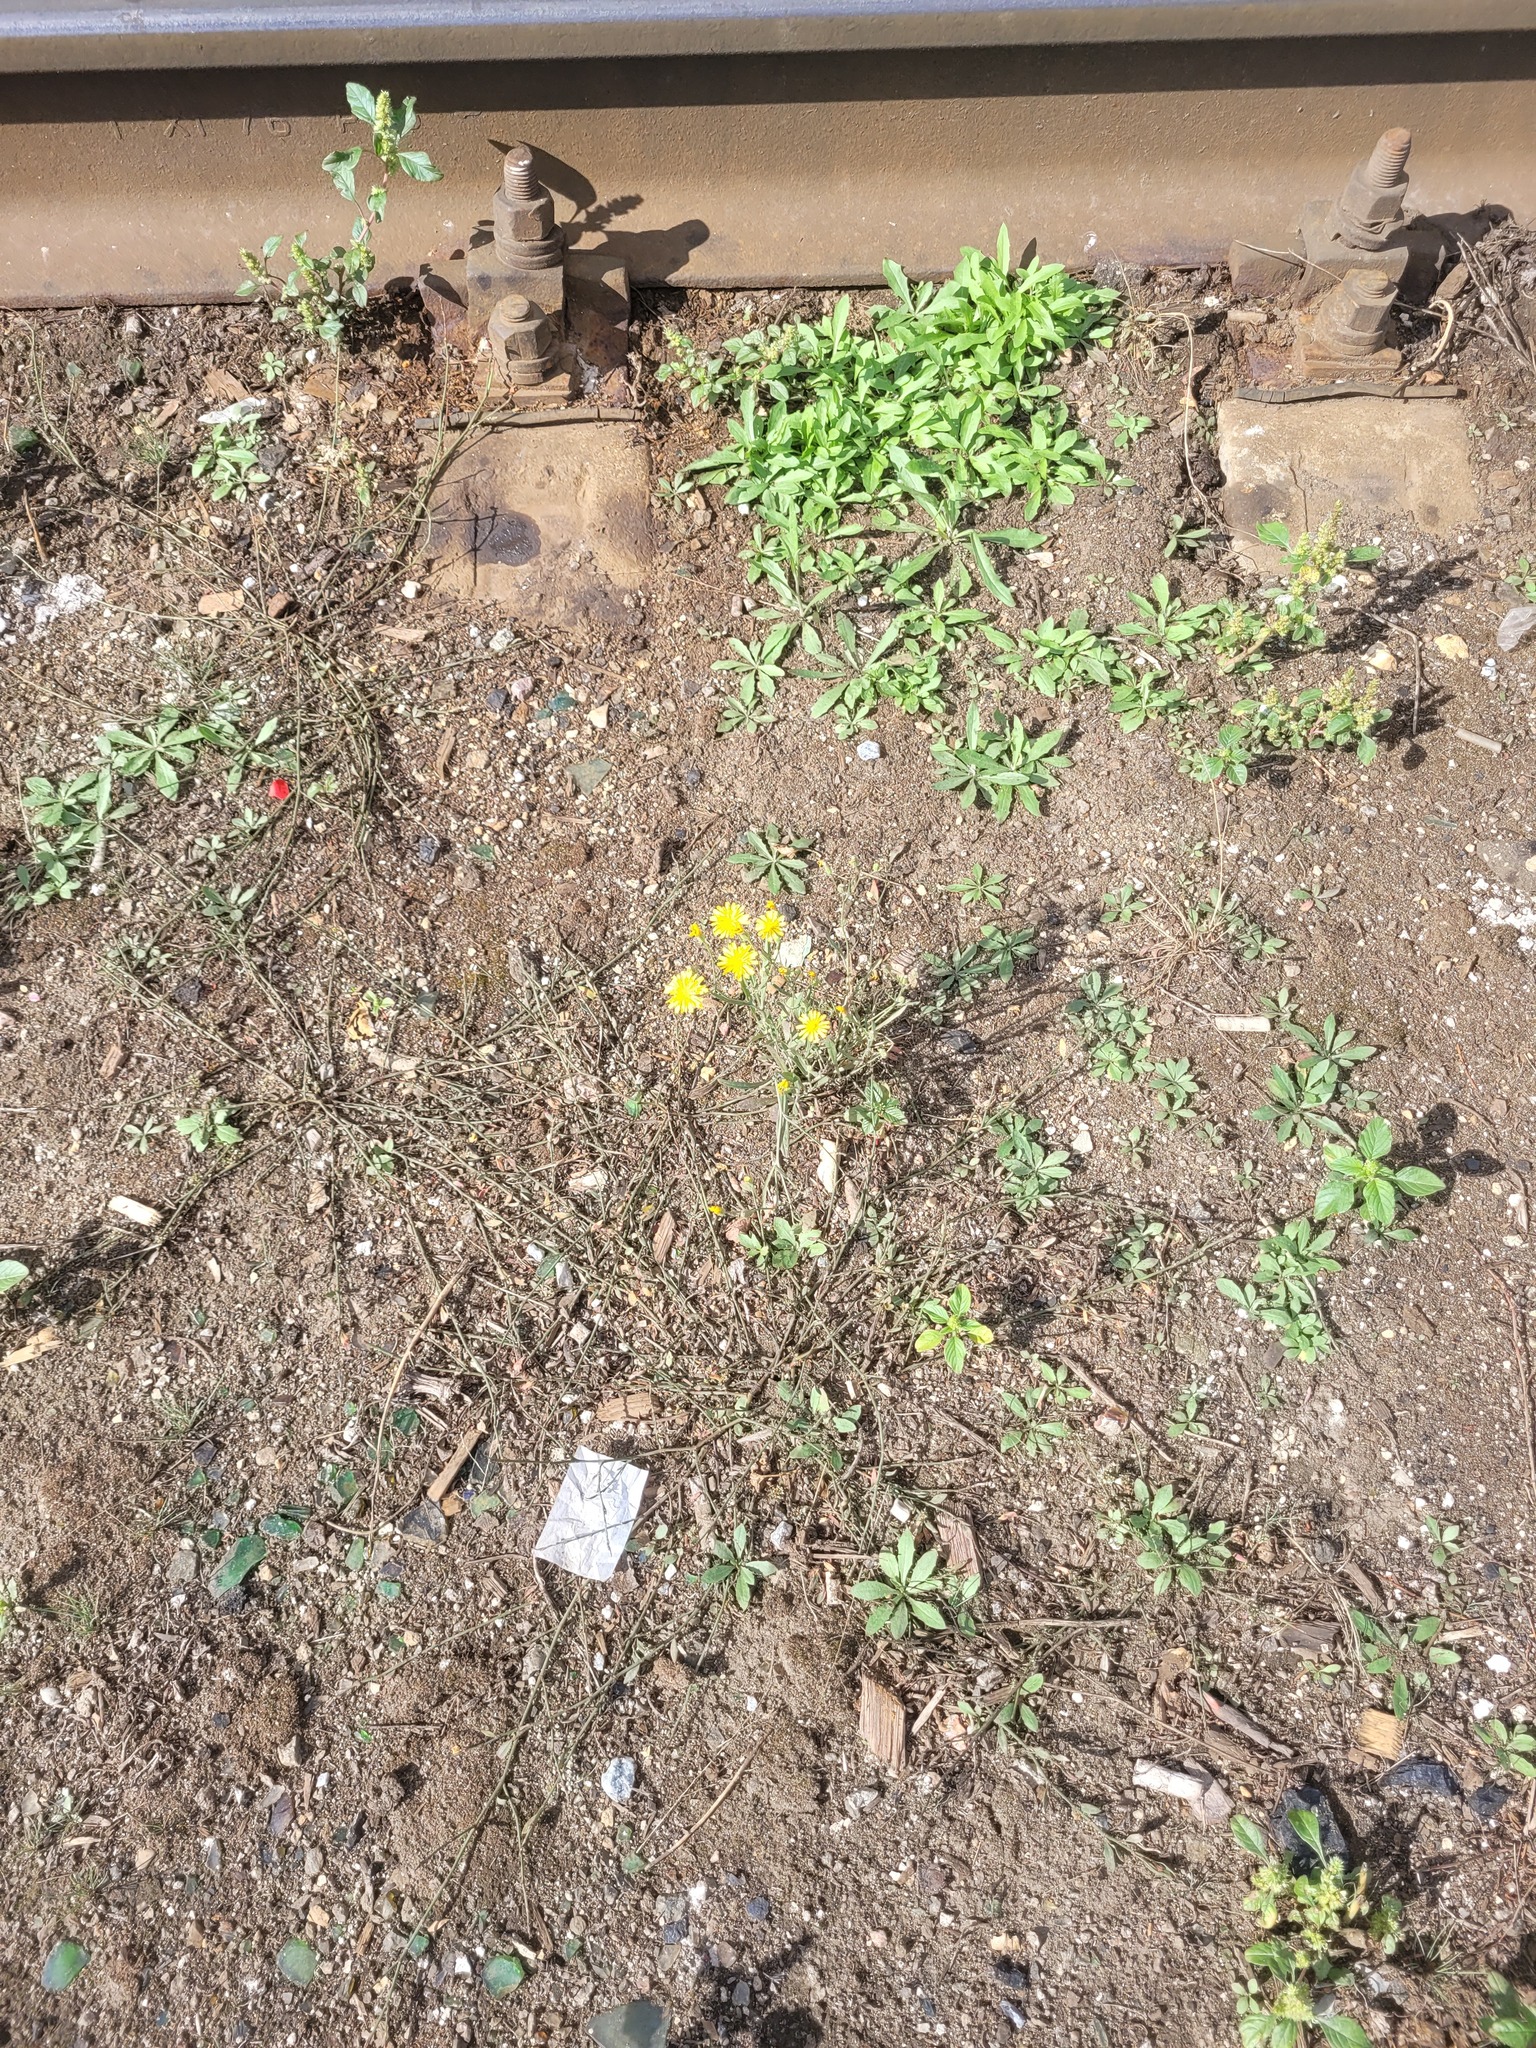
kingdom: Plantae
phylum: Tracheophyta
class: Magnoliopsida
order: Asterales
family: Asteraceae
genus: Crepis
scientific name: Crepis tectorum
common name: Narrow-leaved hawk's-beard
